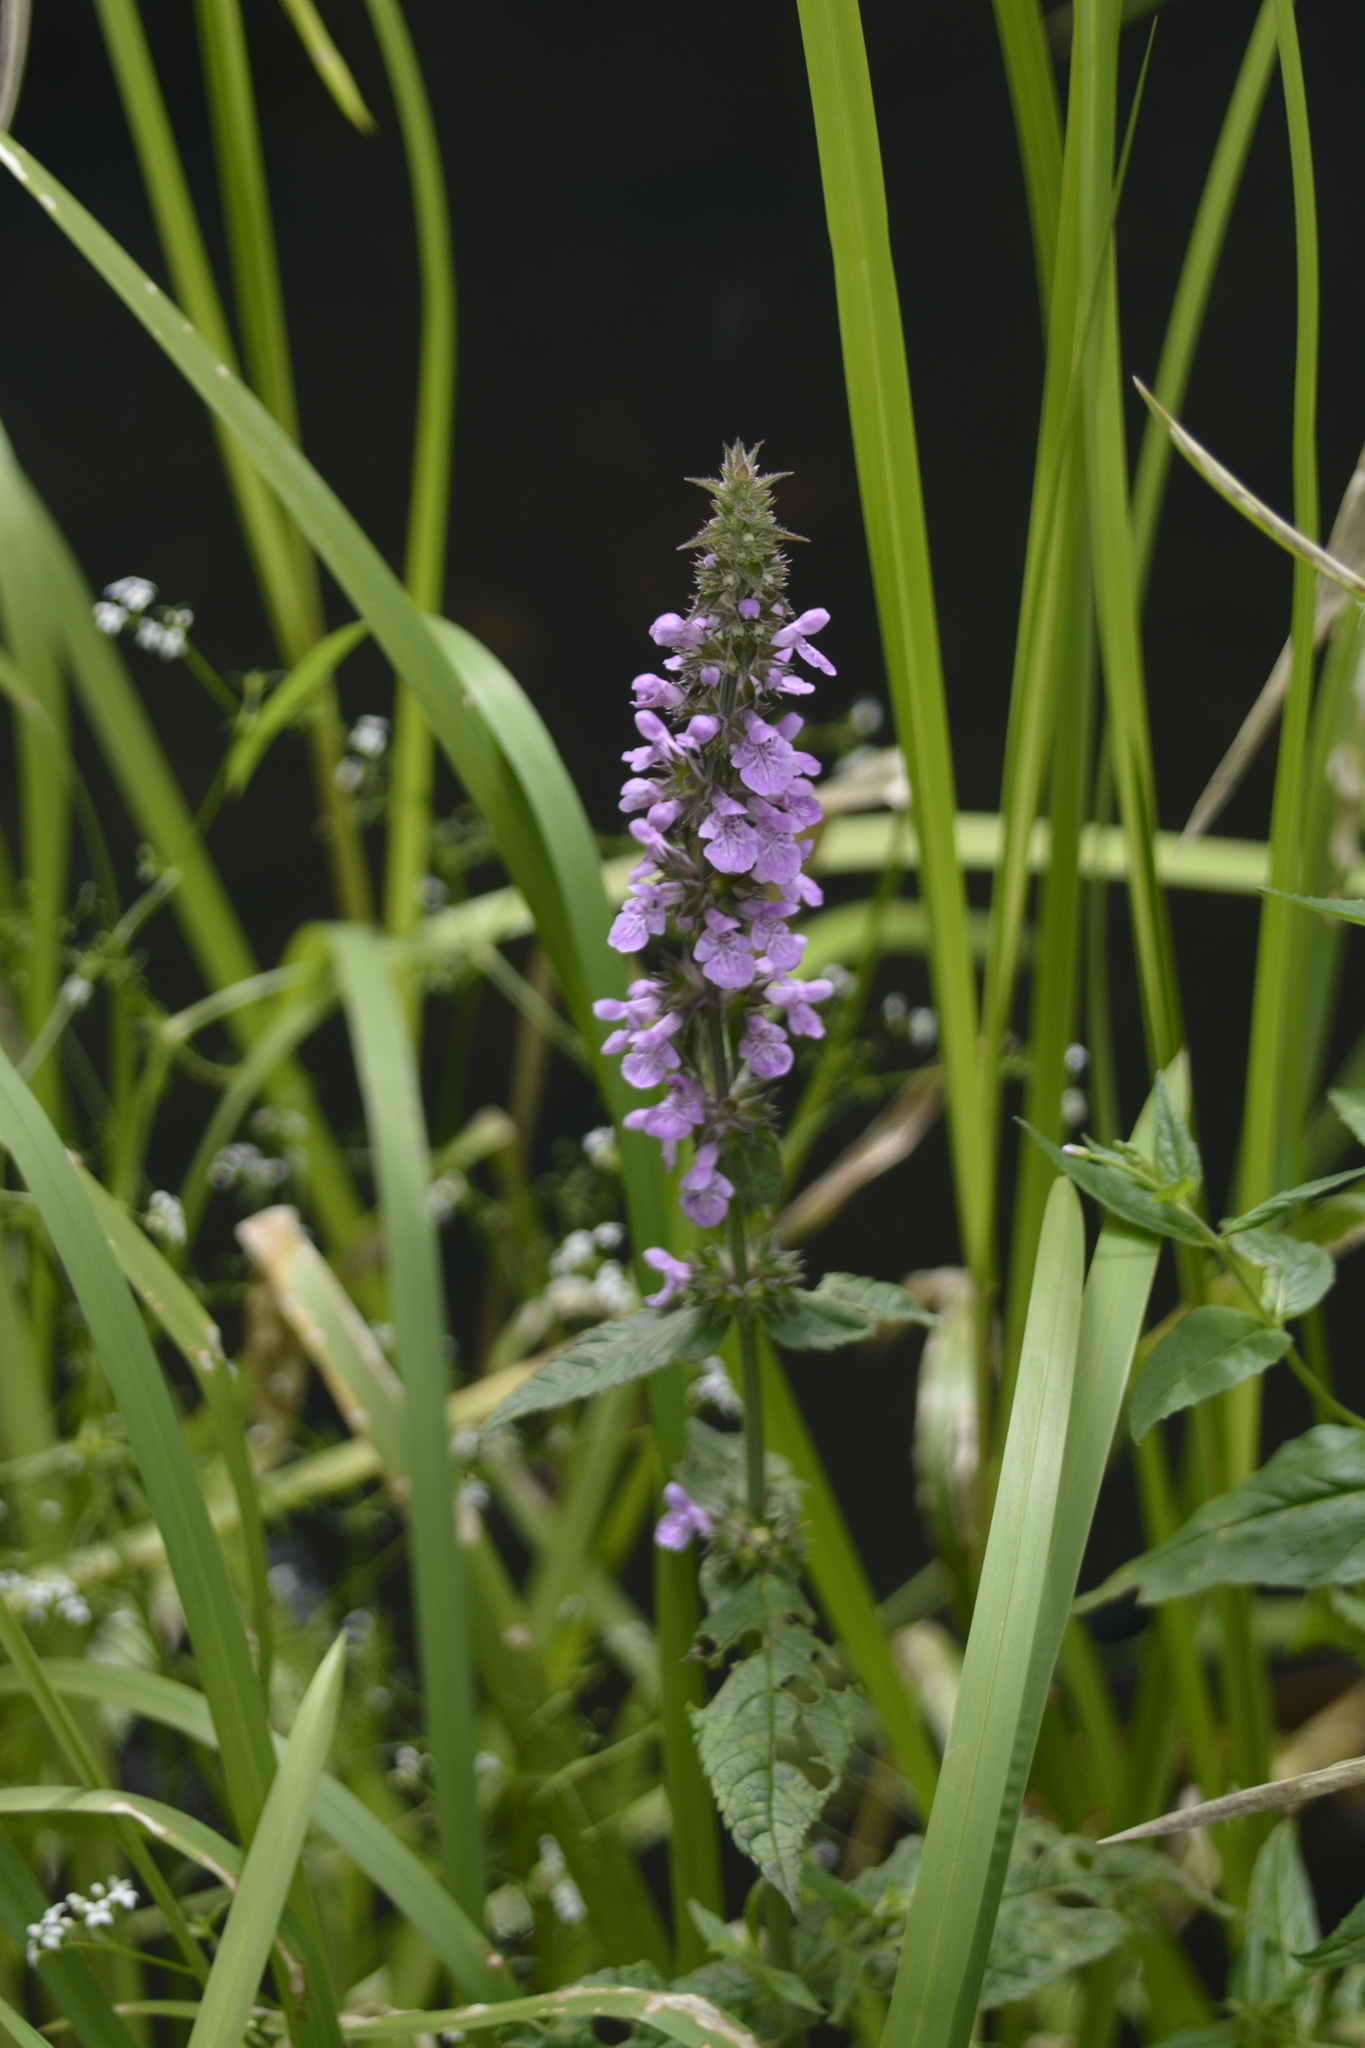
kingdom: Plantae
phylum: Tracheophyta
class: Magnoliopsida
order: Lamiales
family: Lamiaceae
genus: Stachys
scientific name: Stachys palustris
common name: Marsh woundwort
